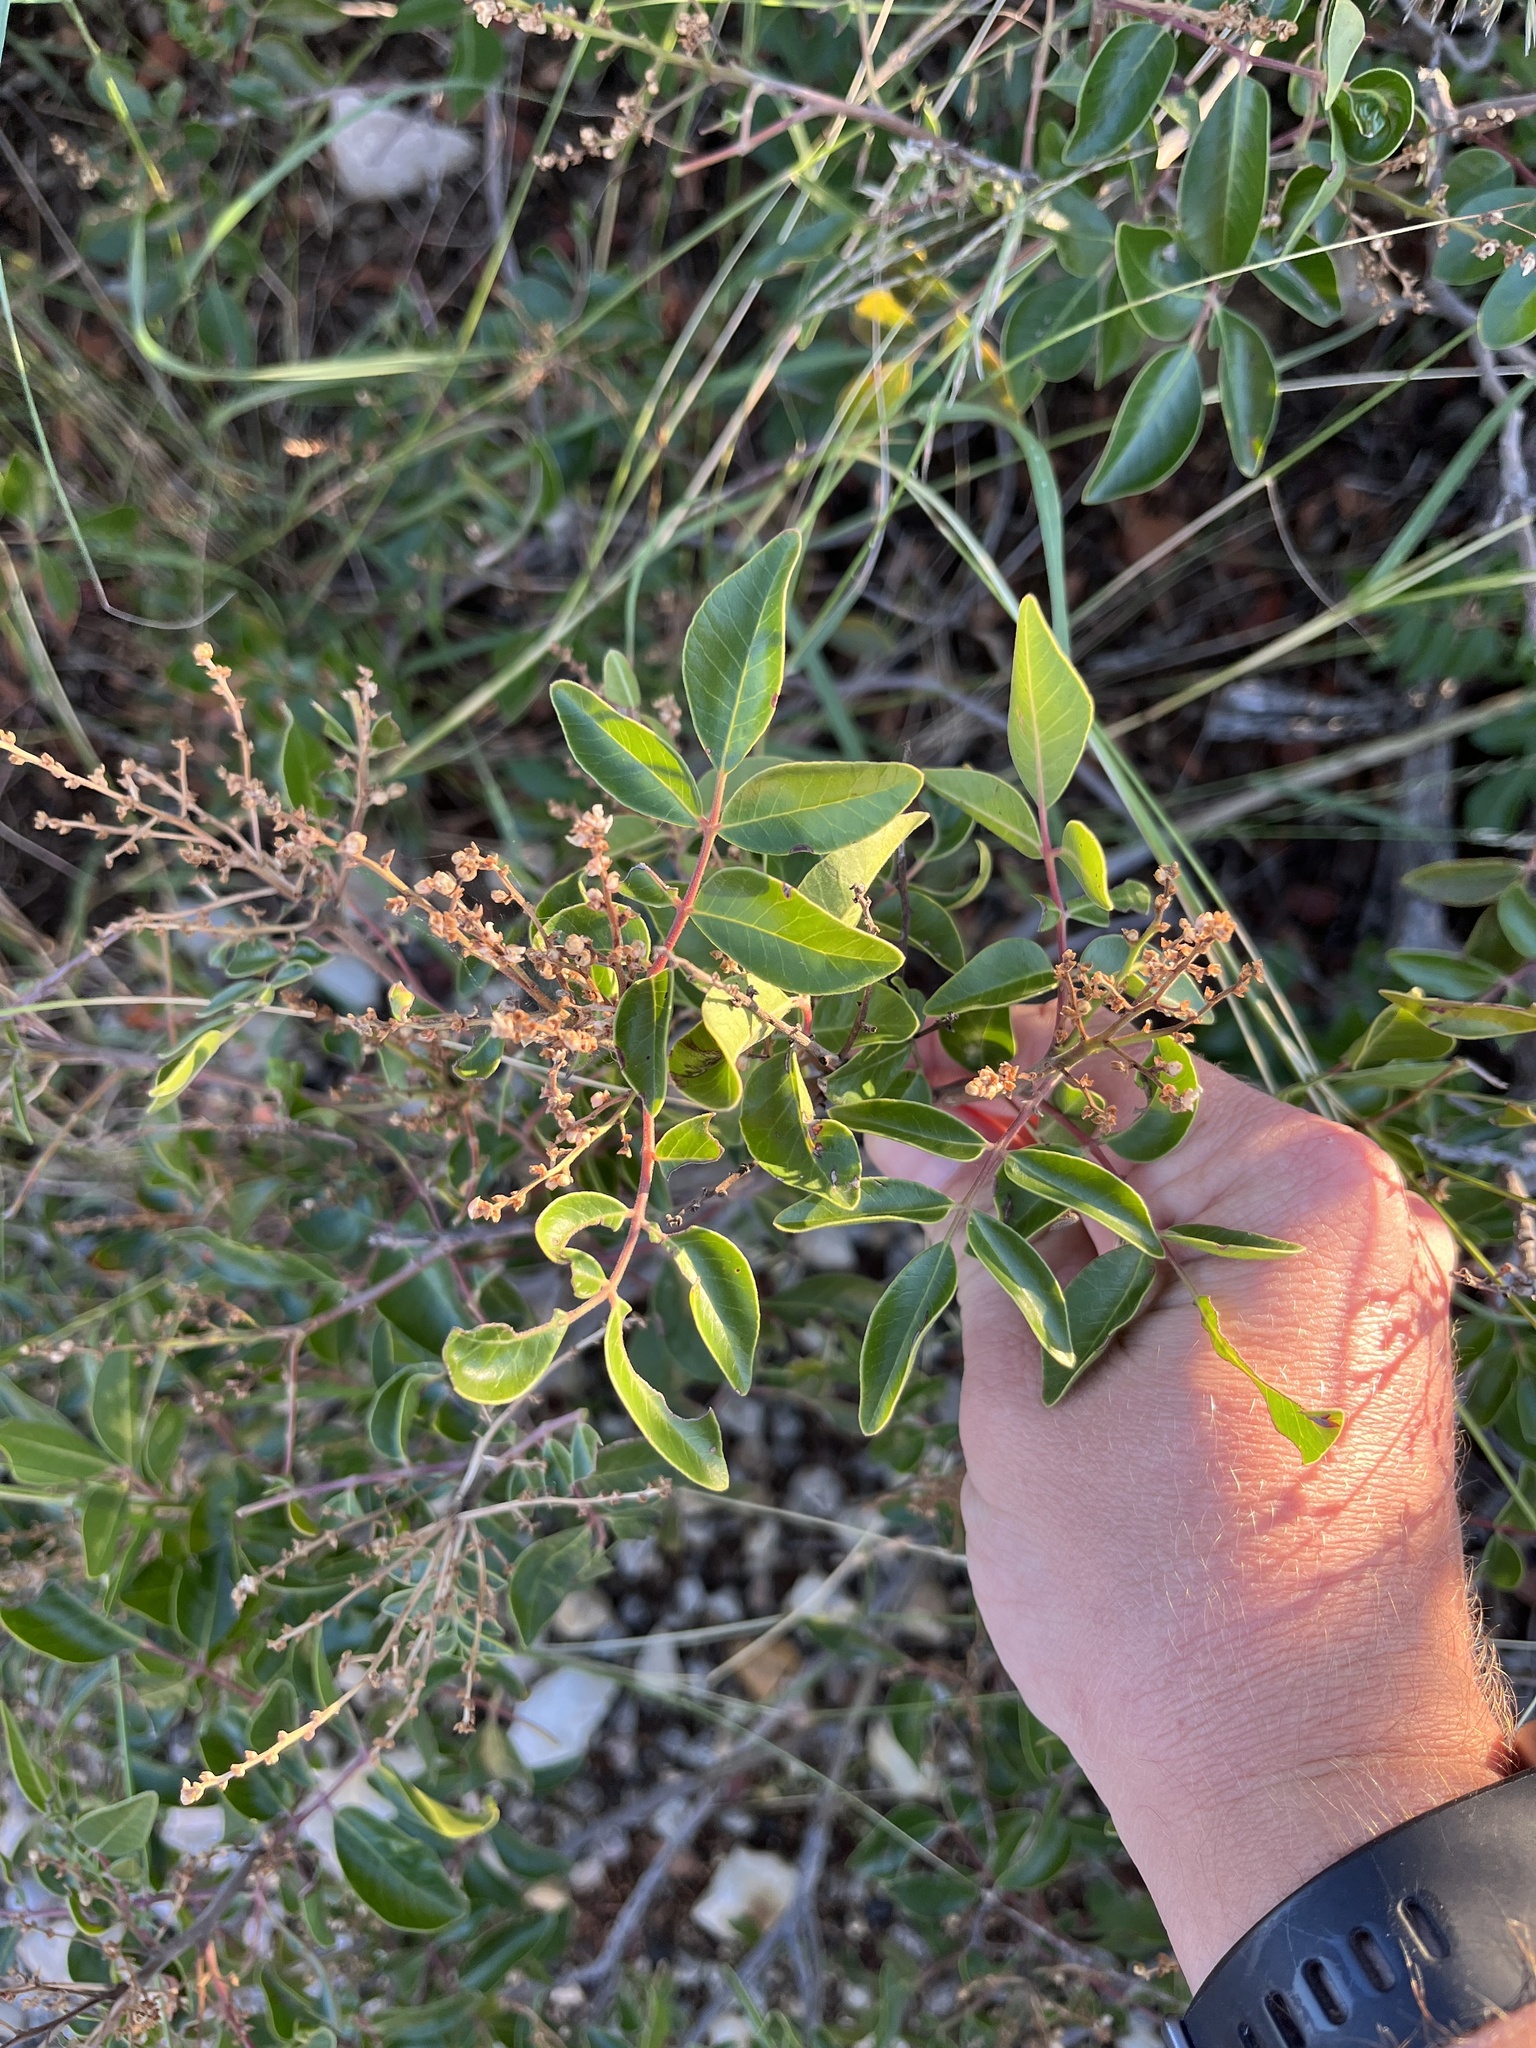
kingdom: Plantae
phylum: Tracheophyta
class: Magnoliopsida
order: Sapindales
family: Anacardiaceae
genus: Rhus
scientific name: Rhus virens
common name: Evergreen sumac
